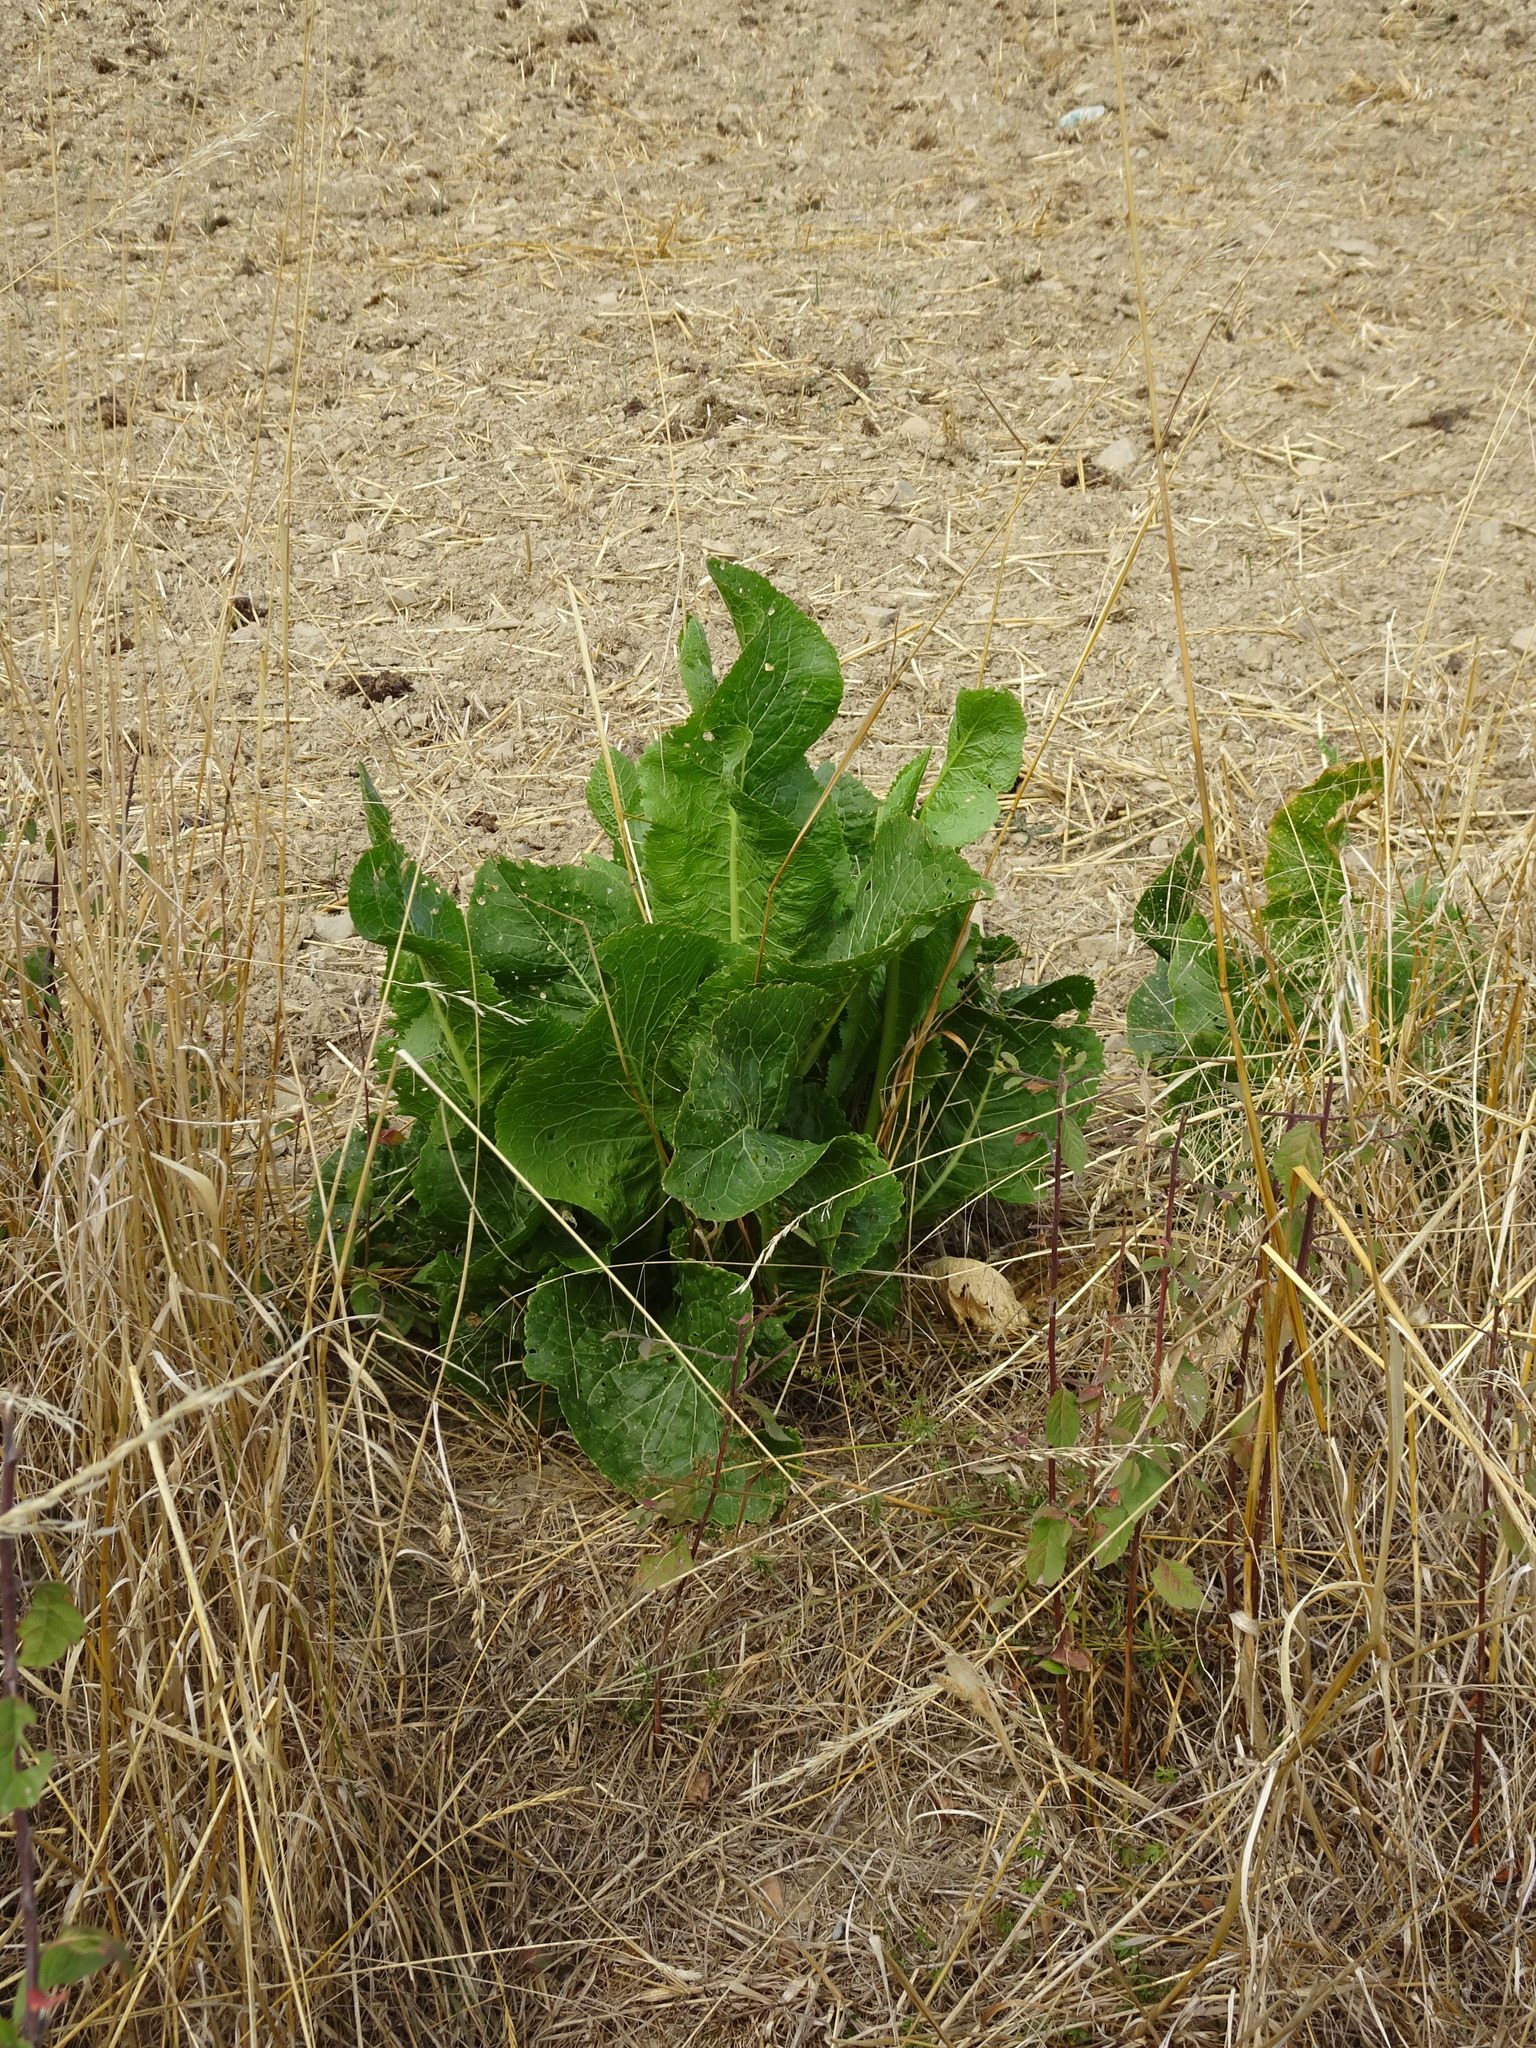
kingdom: Plantae
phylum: Tracheophyta
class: Magnoliopsida
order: Brassicales
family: Brassicaceae
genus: Armoracia
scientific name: Armoracia rusticana
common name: Horseradish
